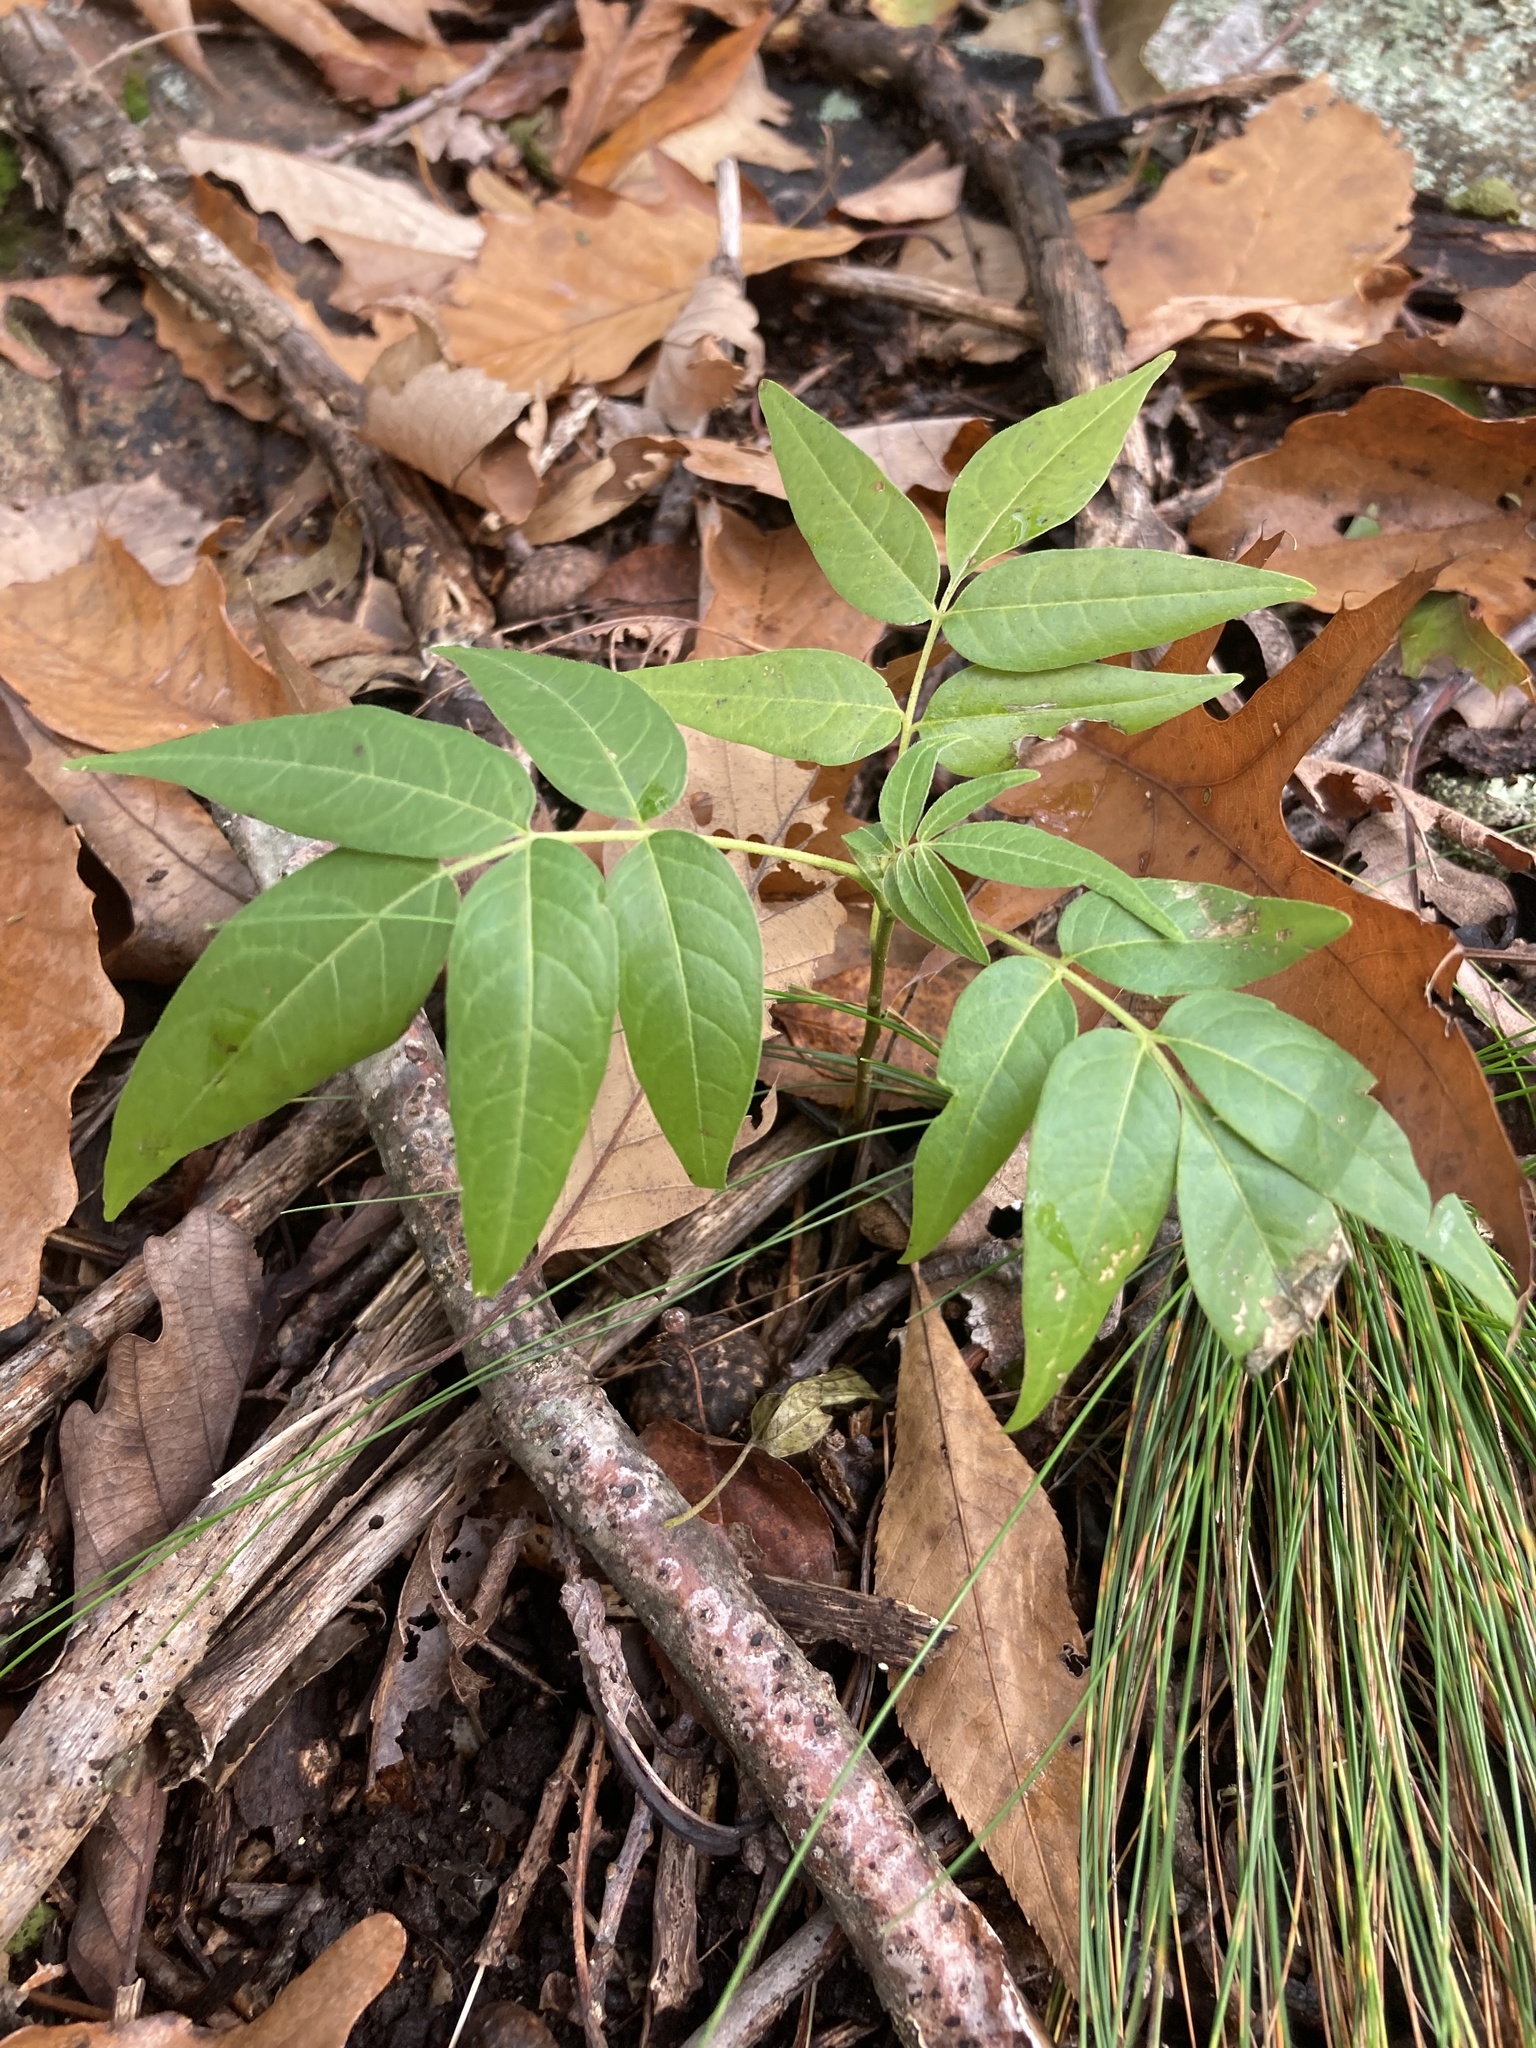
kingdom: Plantae
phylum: Tracheophyta
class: Magnoliopsida
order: Sapindales
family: Simaroubaceae
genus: Ailanthus
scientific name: Ailanthus altissima
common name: Tree-of-heaven
